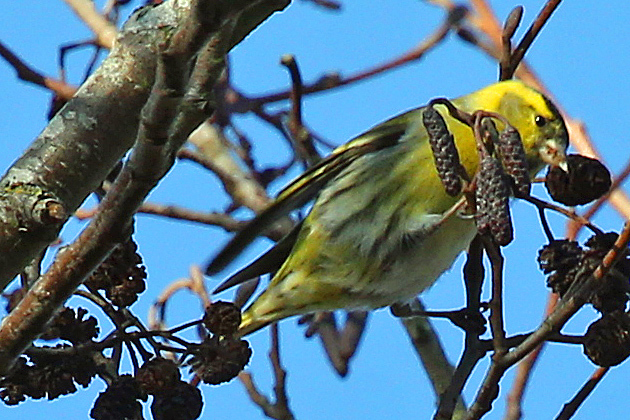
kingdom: Animalia
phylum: Chordata
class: Aves
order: Passeriformes
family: Fringillidae
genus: Spinus
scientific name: Spinus spinus
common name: Eurasian siskin
